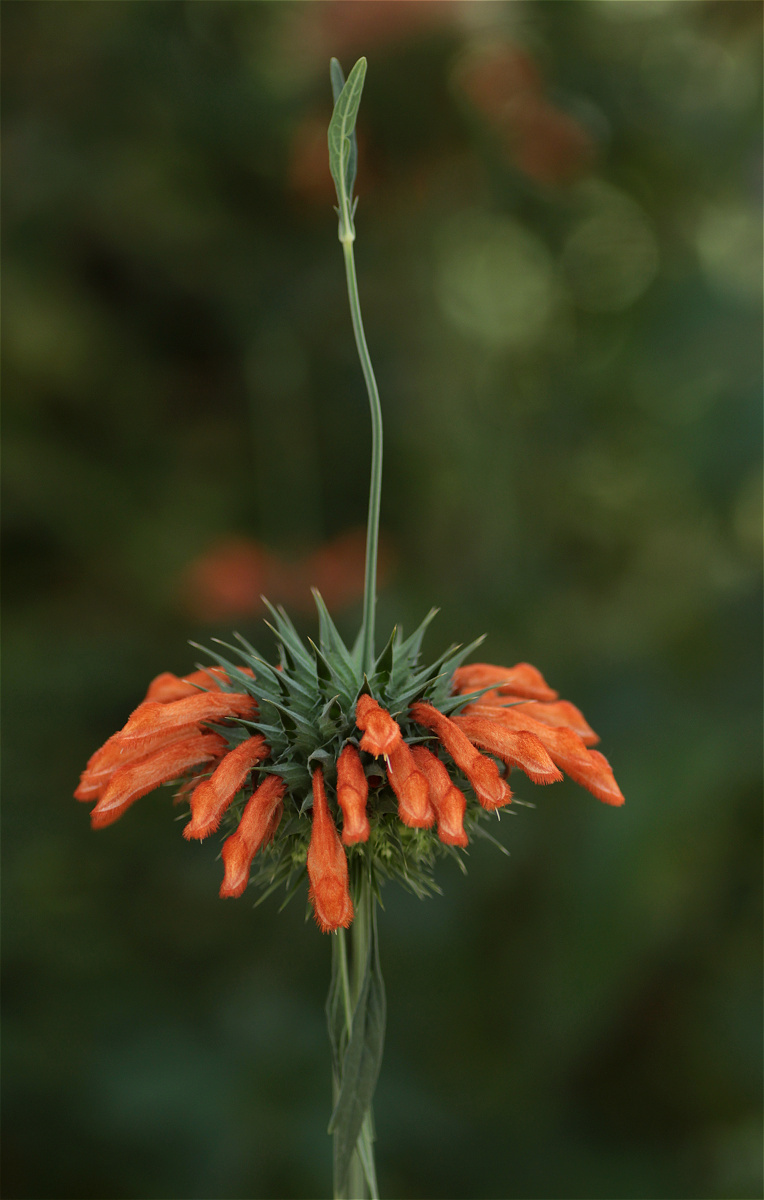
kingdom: Plantae
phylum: Tracheophyta
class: Magnoliopsida
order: Lamiales
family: Lamiaceae
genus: Leonotis
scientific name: Leonotis nepetifolia
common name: Christmas candlestick
